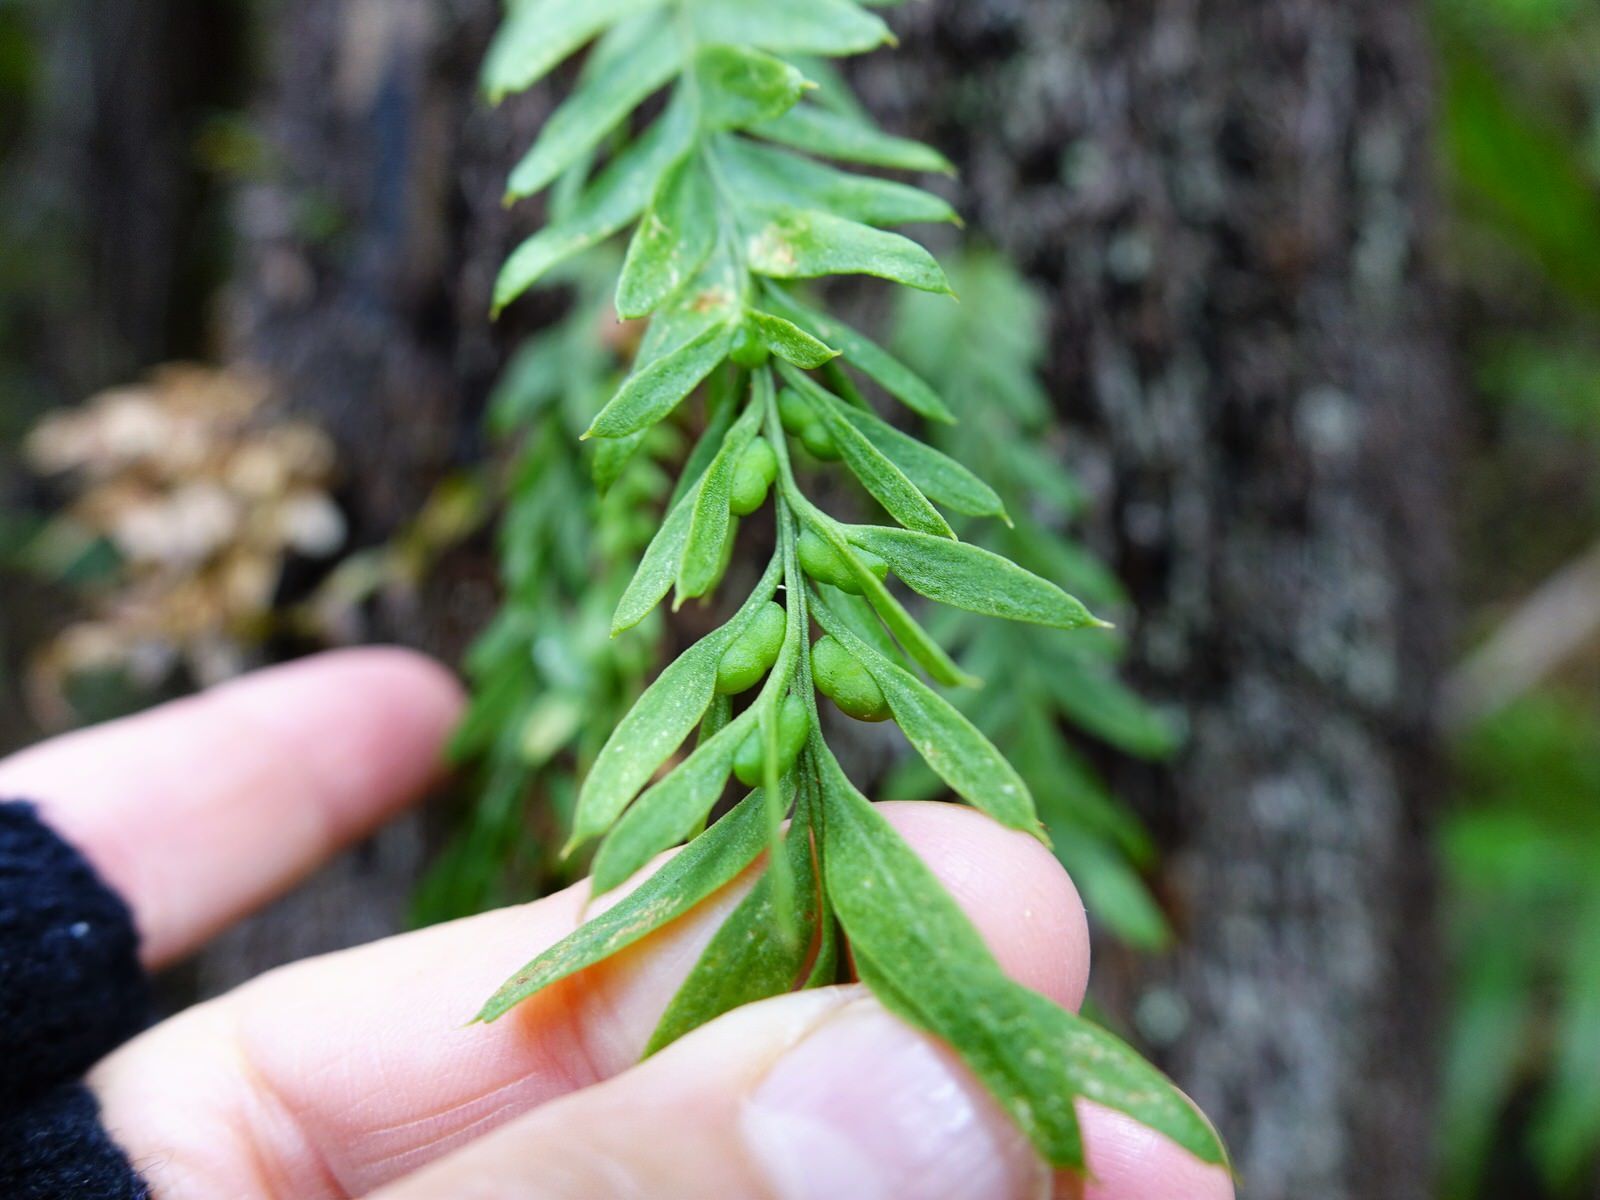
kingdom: Plantae
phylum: Tracheophyta
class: Polypodiopsida
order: Psilotales
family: Psilotaceae
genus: Tmesipteris
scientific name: Tmesipteris elongata
